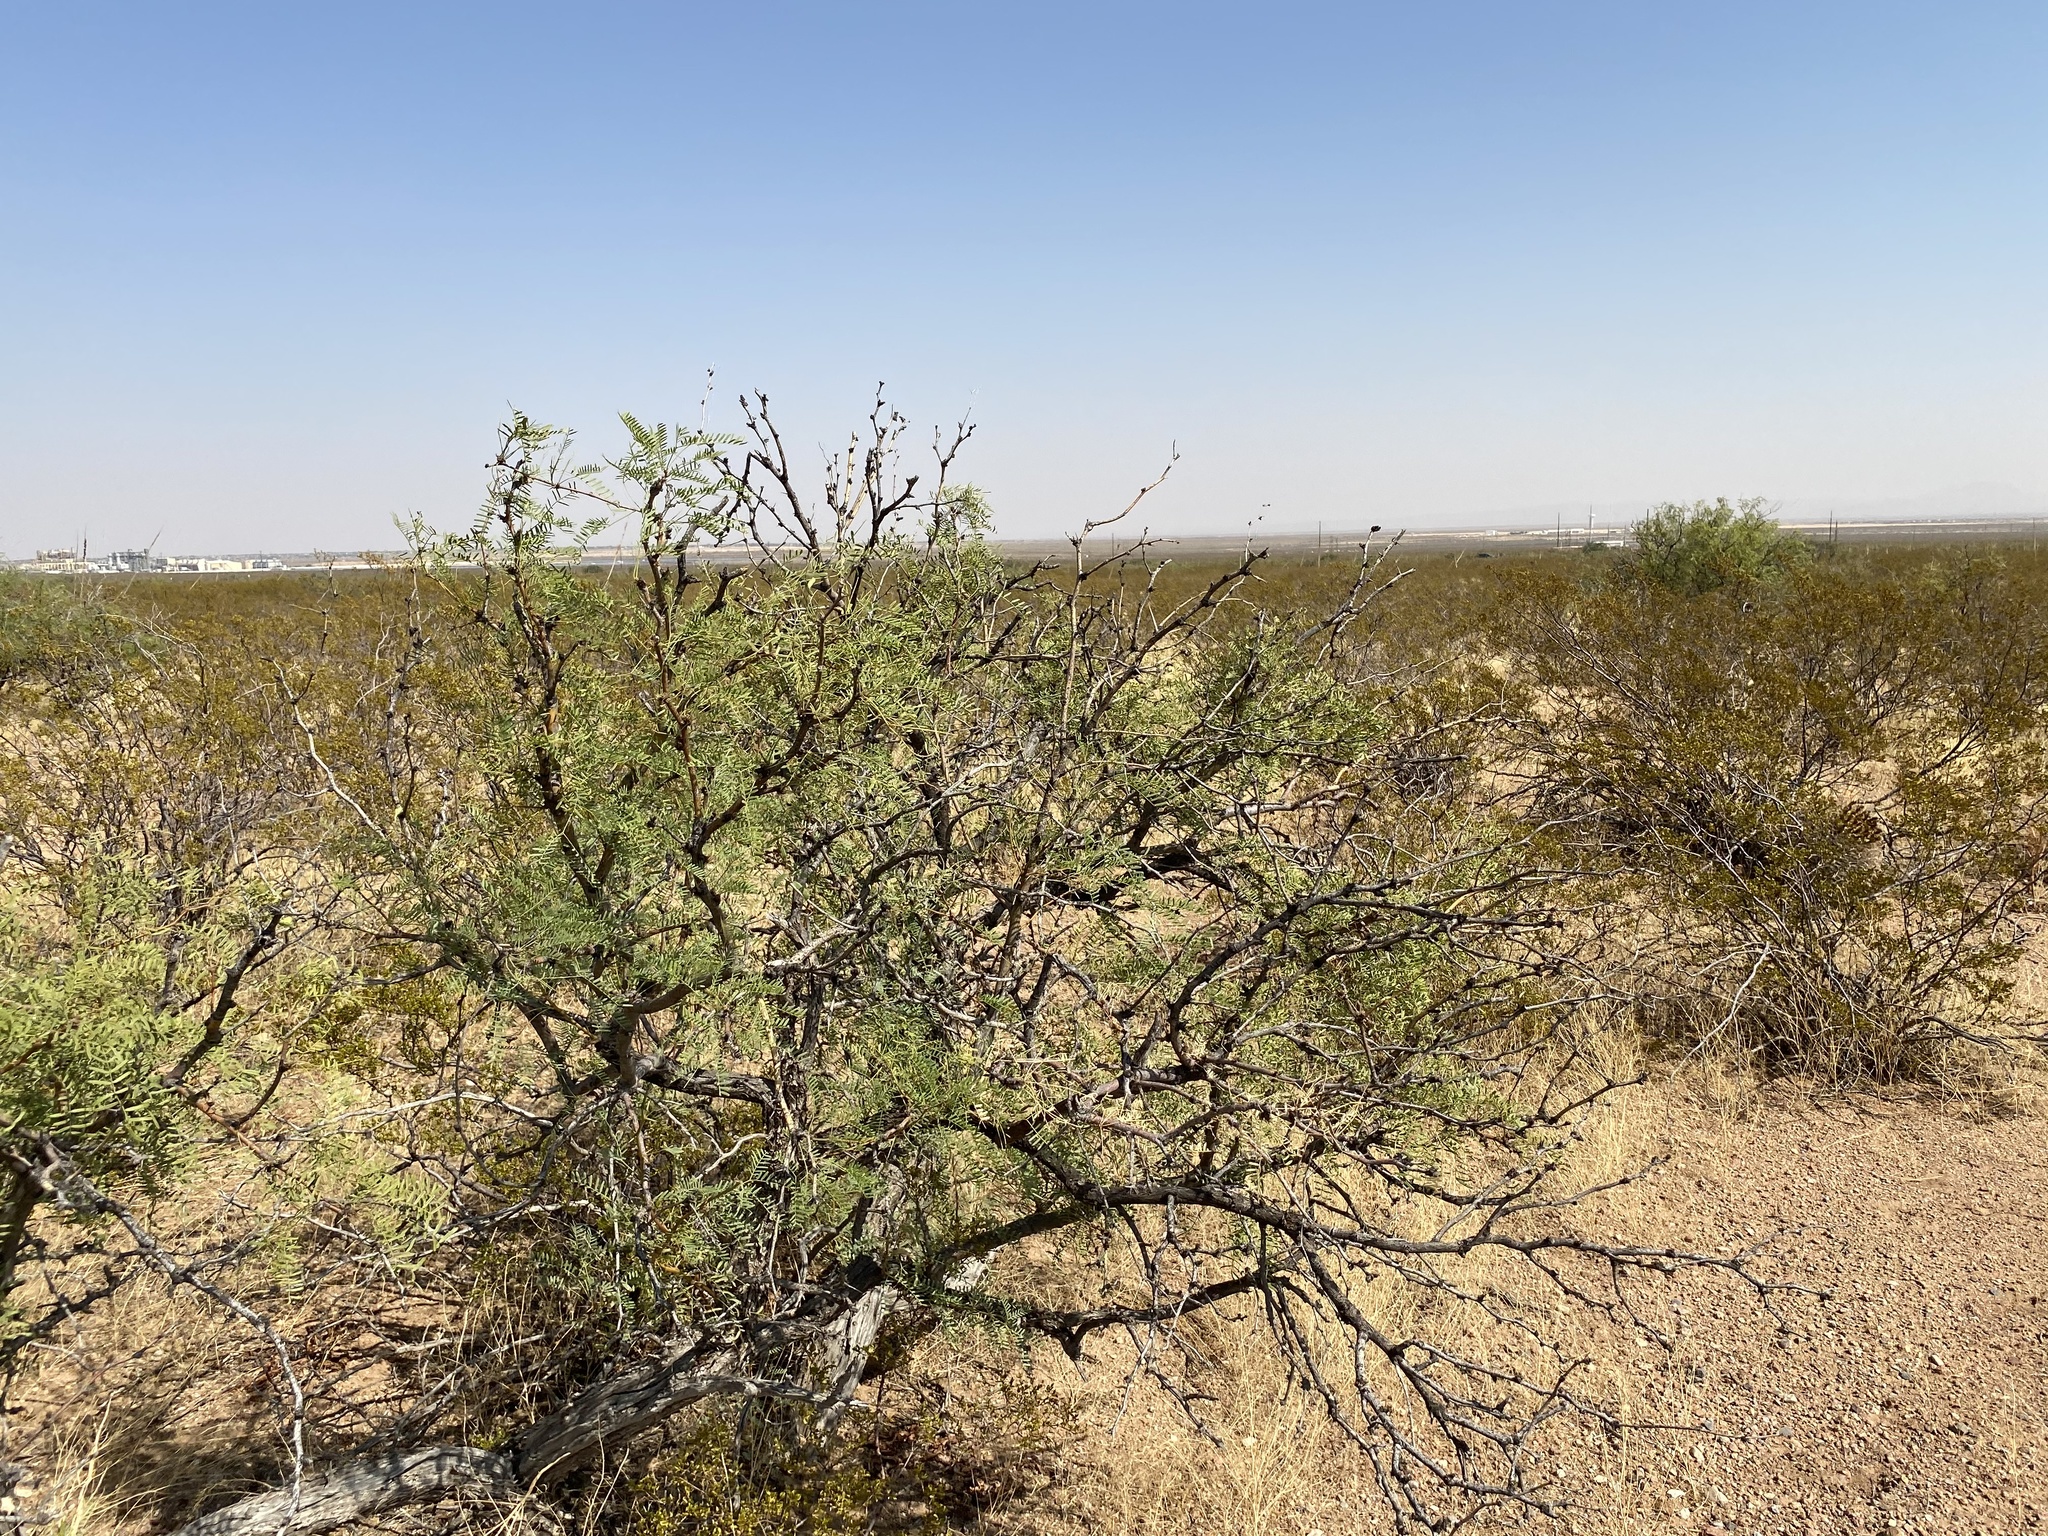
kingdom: Plantae
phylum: Tracheophyta
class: Magnoliopsida
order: Fabales
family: Fabaceae
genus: Prosopis
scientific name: Prosopis glandulosa
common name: Honey mesquite
